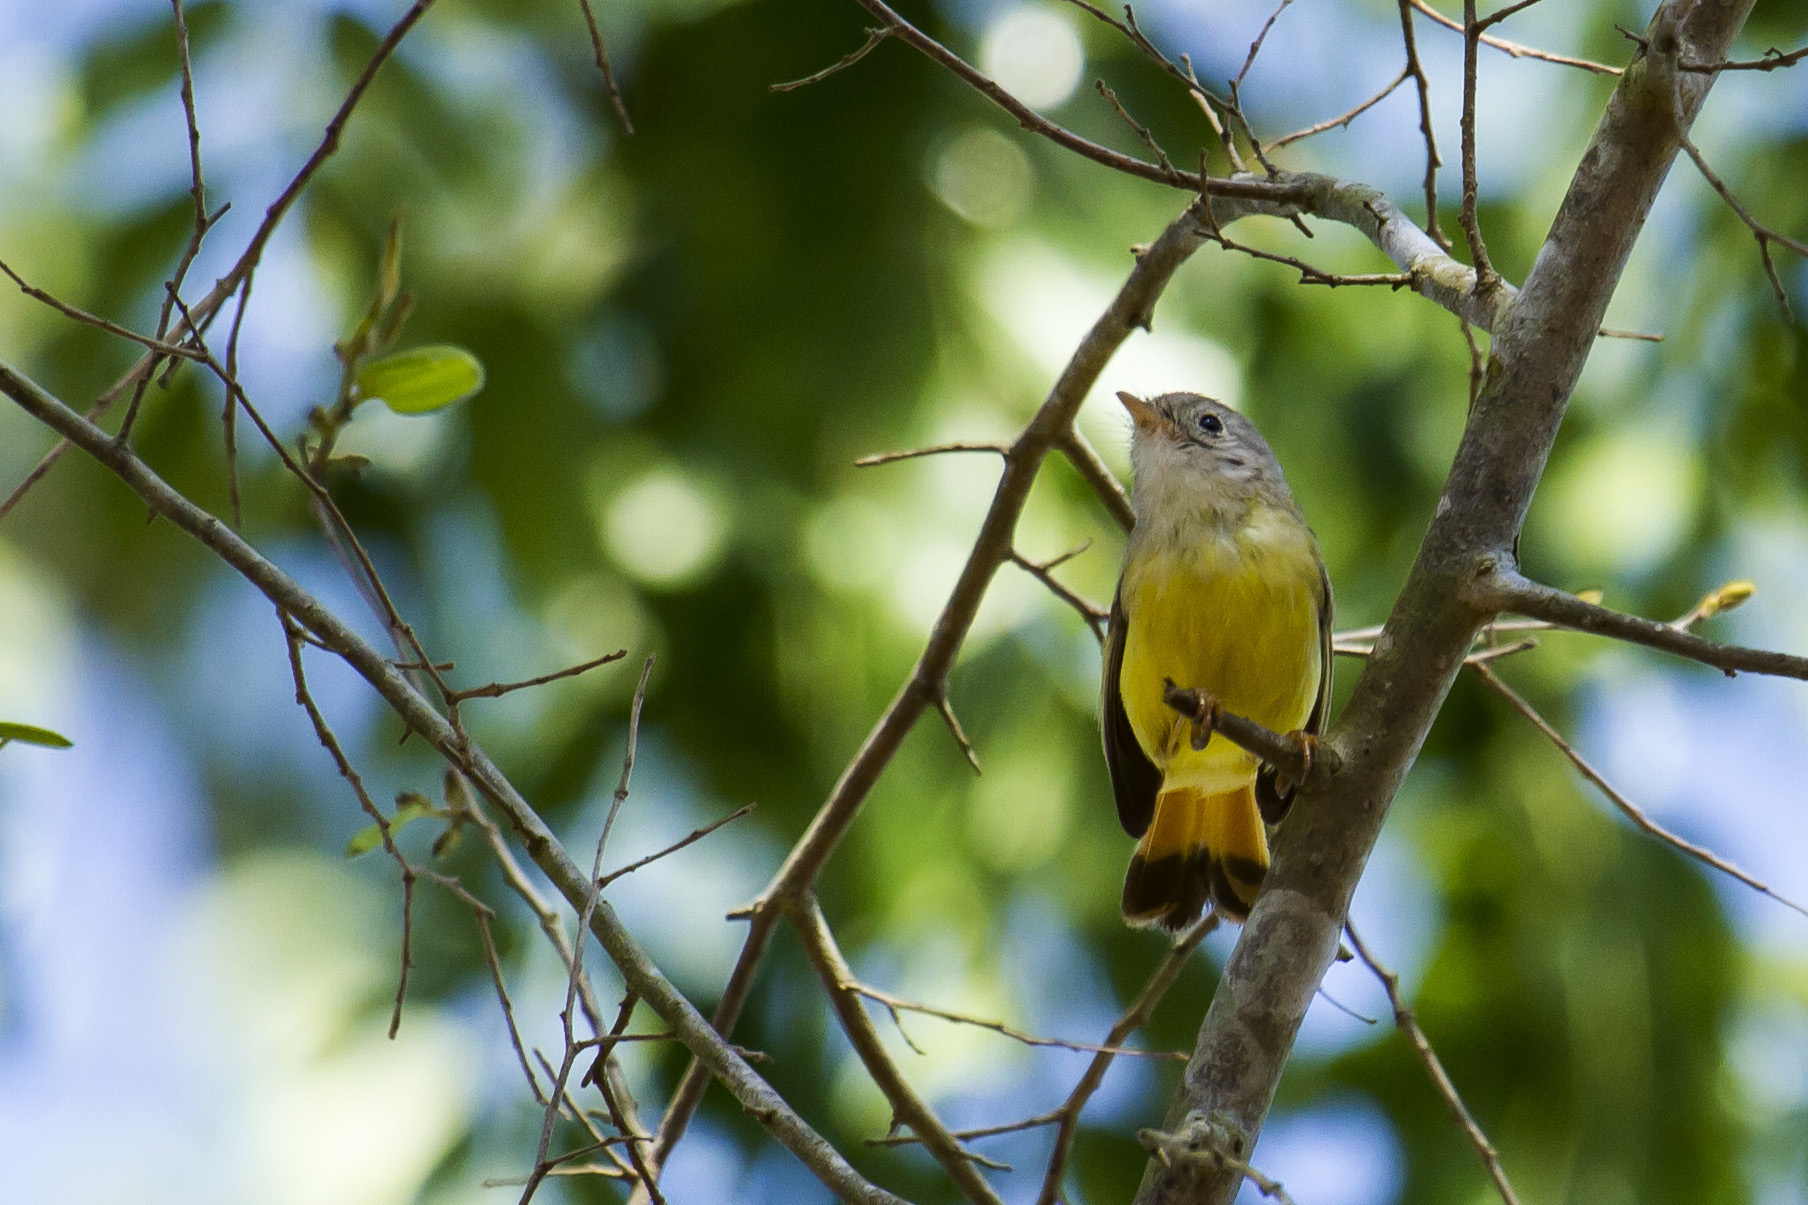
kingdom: Animalia
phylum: Chordata
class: Aves
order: Passeriformes
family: Erythrocercidae
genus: Erythrocercus
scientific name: Erythrocercus livingstonei
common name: Livingstone's flycatcher
